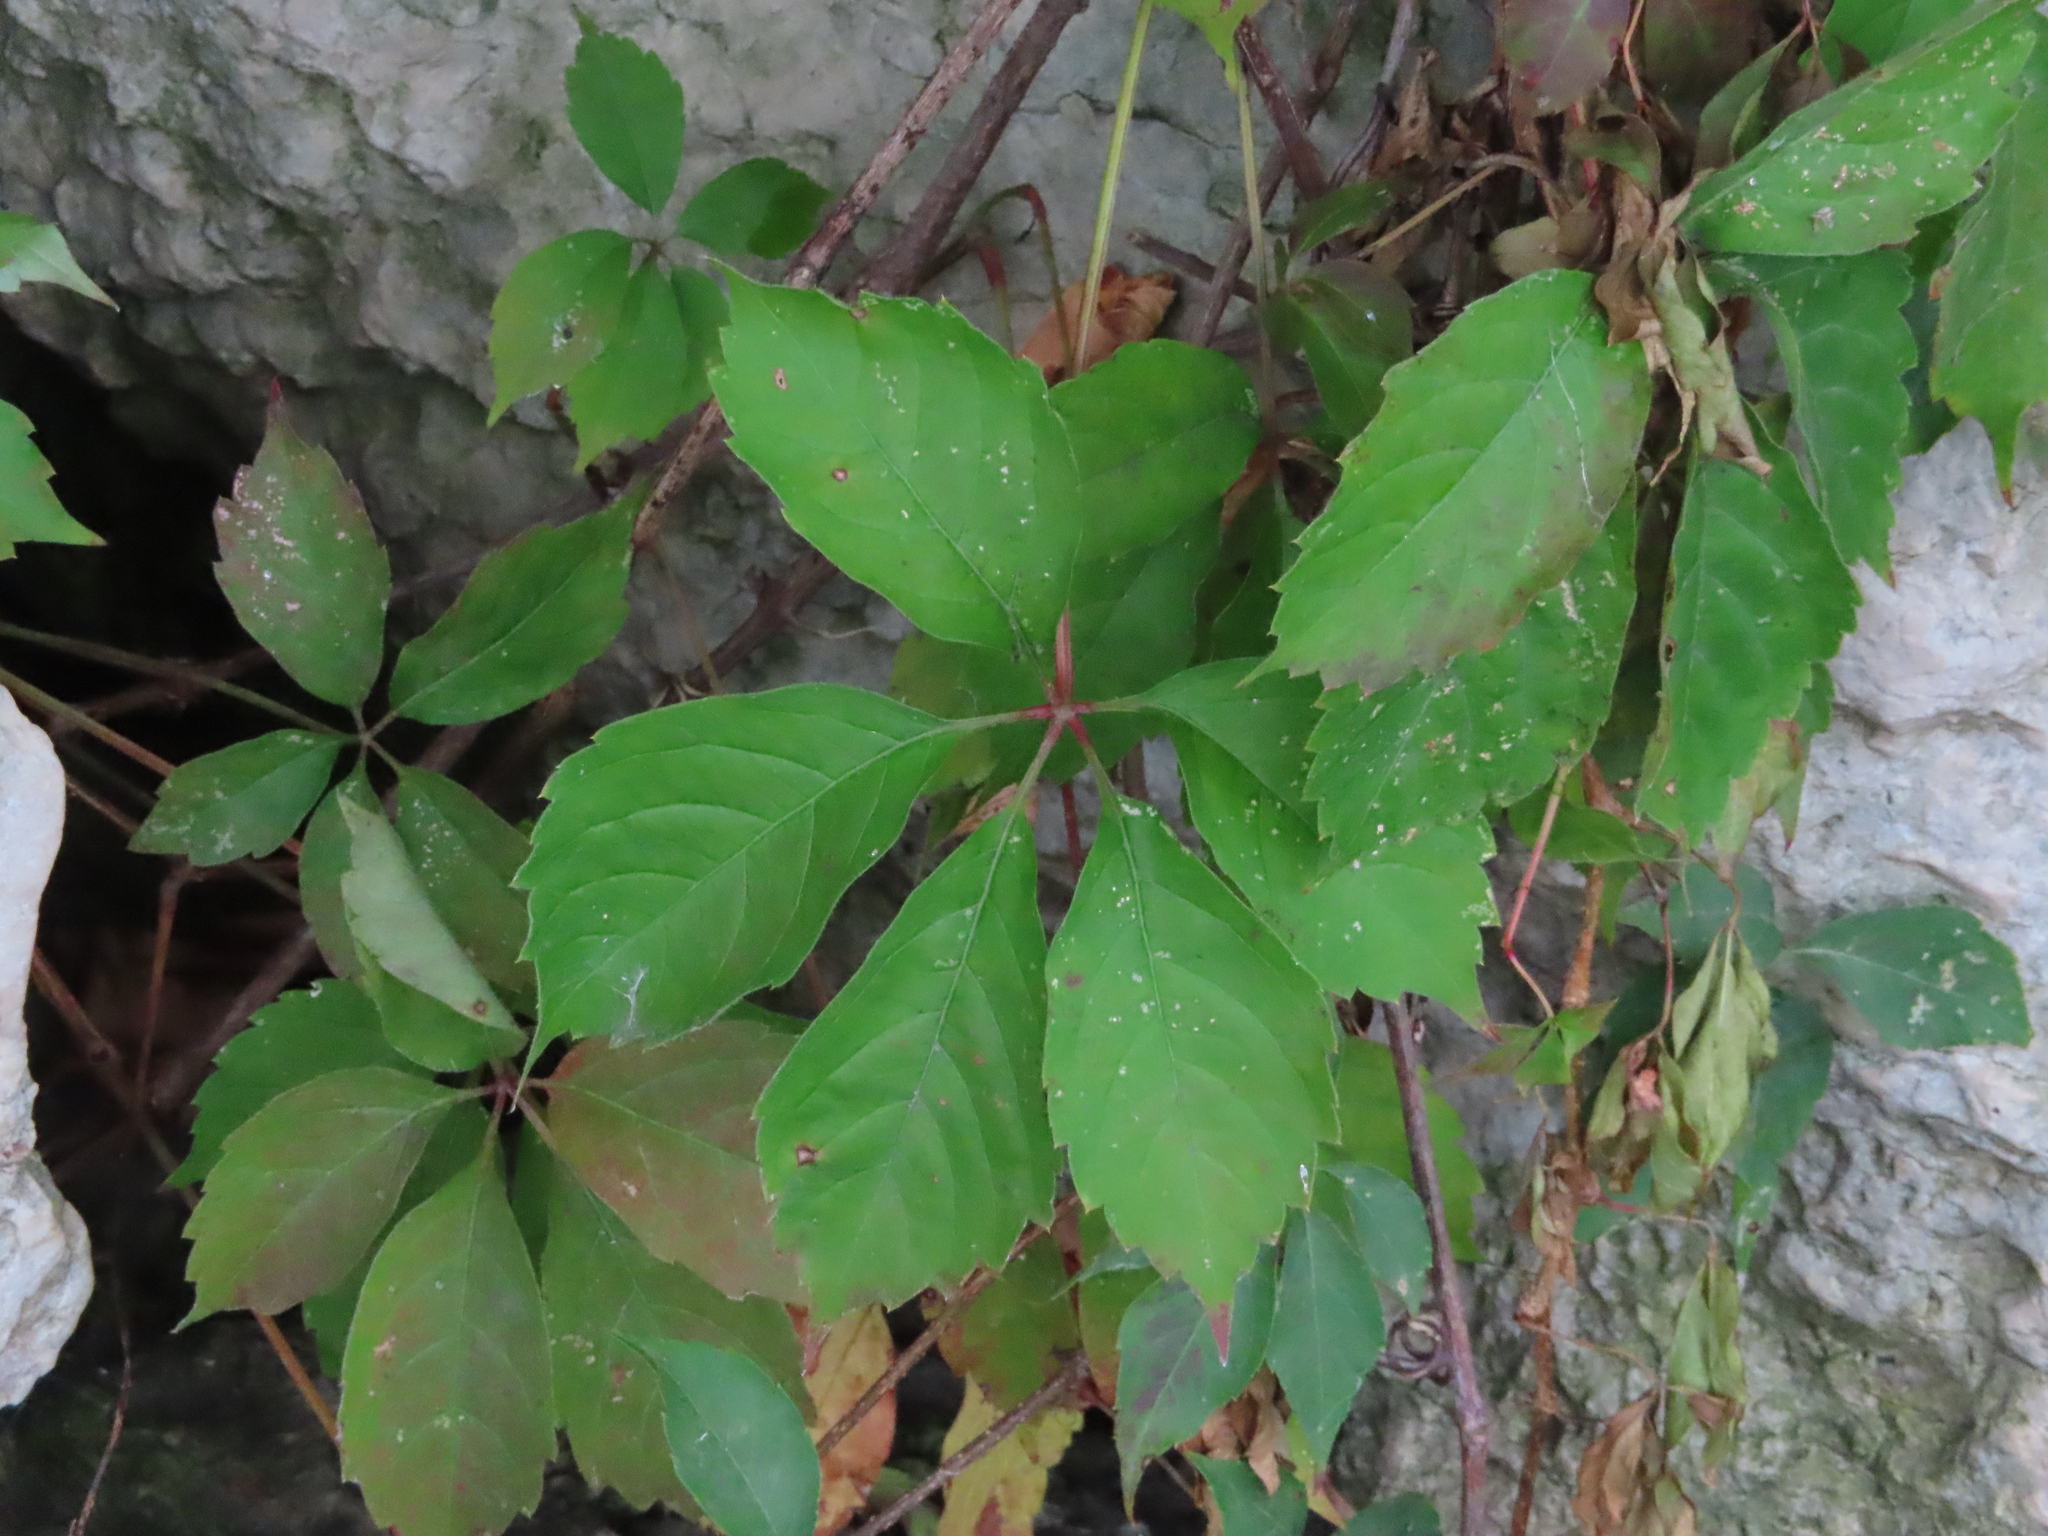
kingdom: Plantae
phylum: Tracheophyta
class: Magnoliopsida
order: Vitales
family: Vitaceae
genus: Parthenocissus
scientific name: Parthenocissus quinquefolia
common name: Virginia-creeper
